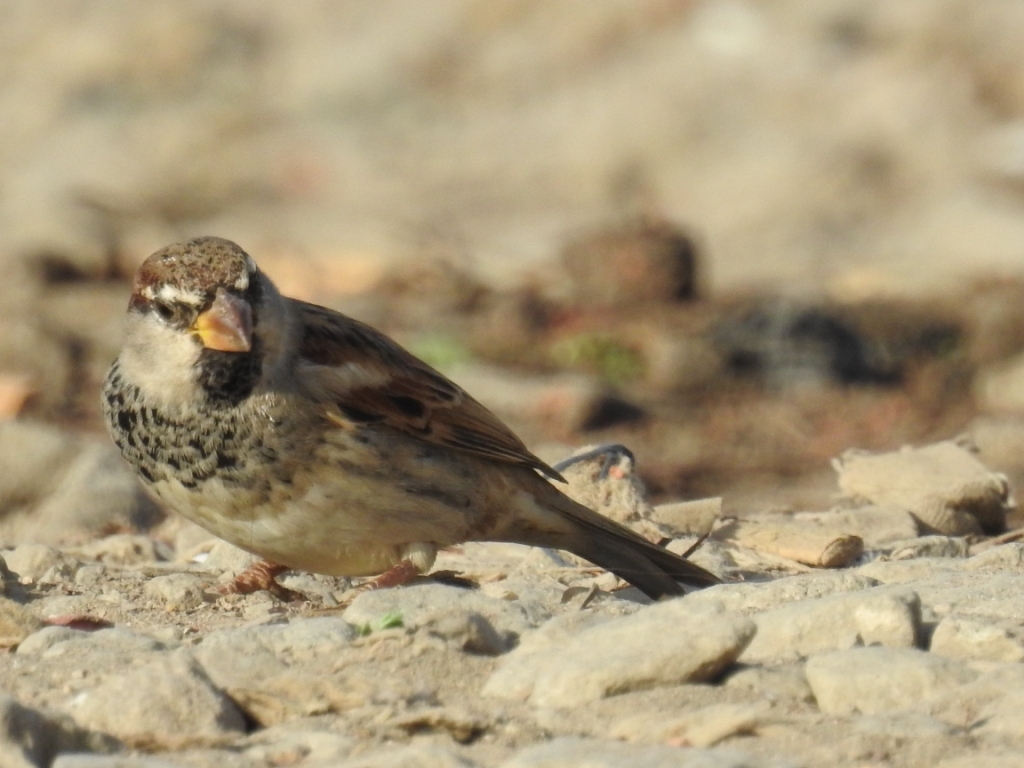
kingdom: Animalia
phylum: Chordata
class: Aves
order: Passeriformes
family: Passeridae
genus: Passer
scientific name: Passer hispaniolensis
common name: Spanish sparrow
